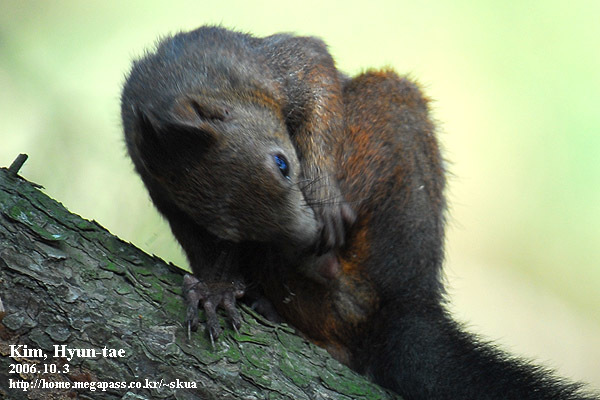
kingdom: Animalia
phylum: Chordata
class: Mammalia
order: Rodentia
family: Sciuridae
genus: Sciurus
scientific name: Sciurus vulgaris
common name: Eurasian red squirrel
